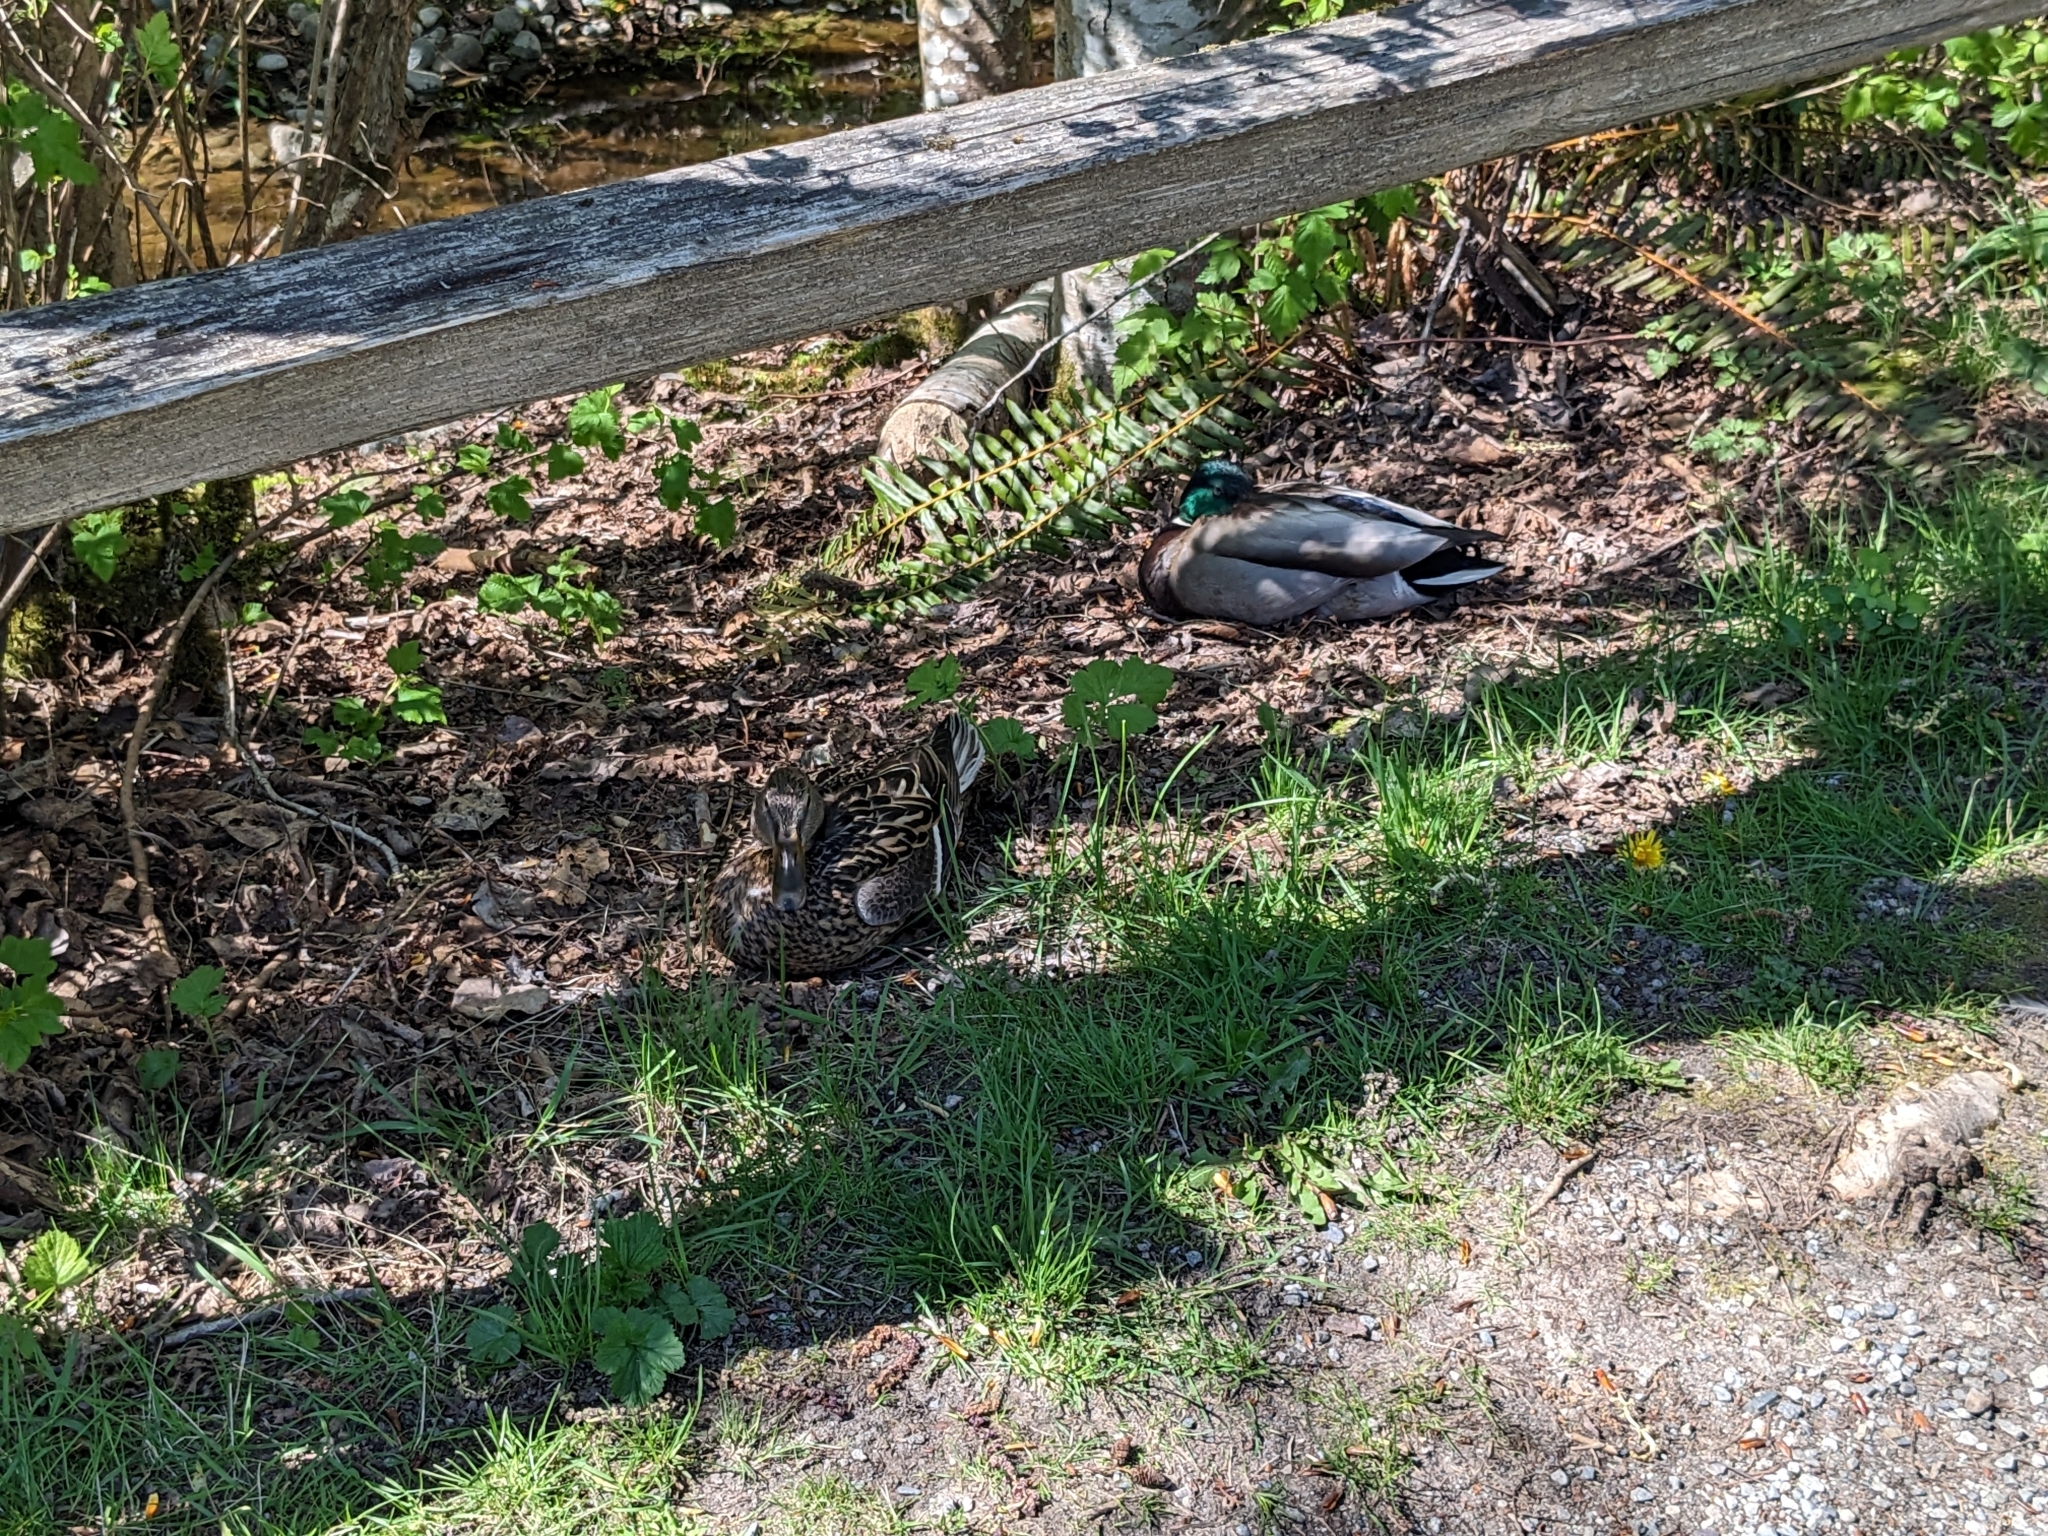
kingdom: Animalia
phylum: Chordata
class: Aves
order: Anseriformes
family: Anatidae
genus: Anas
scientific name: Anas platyrhynchos
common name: Mallard
